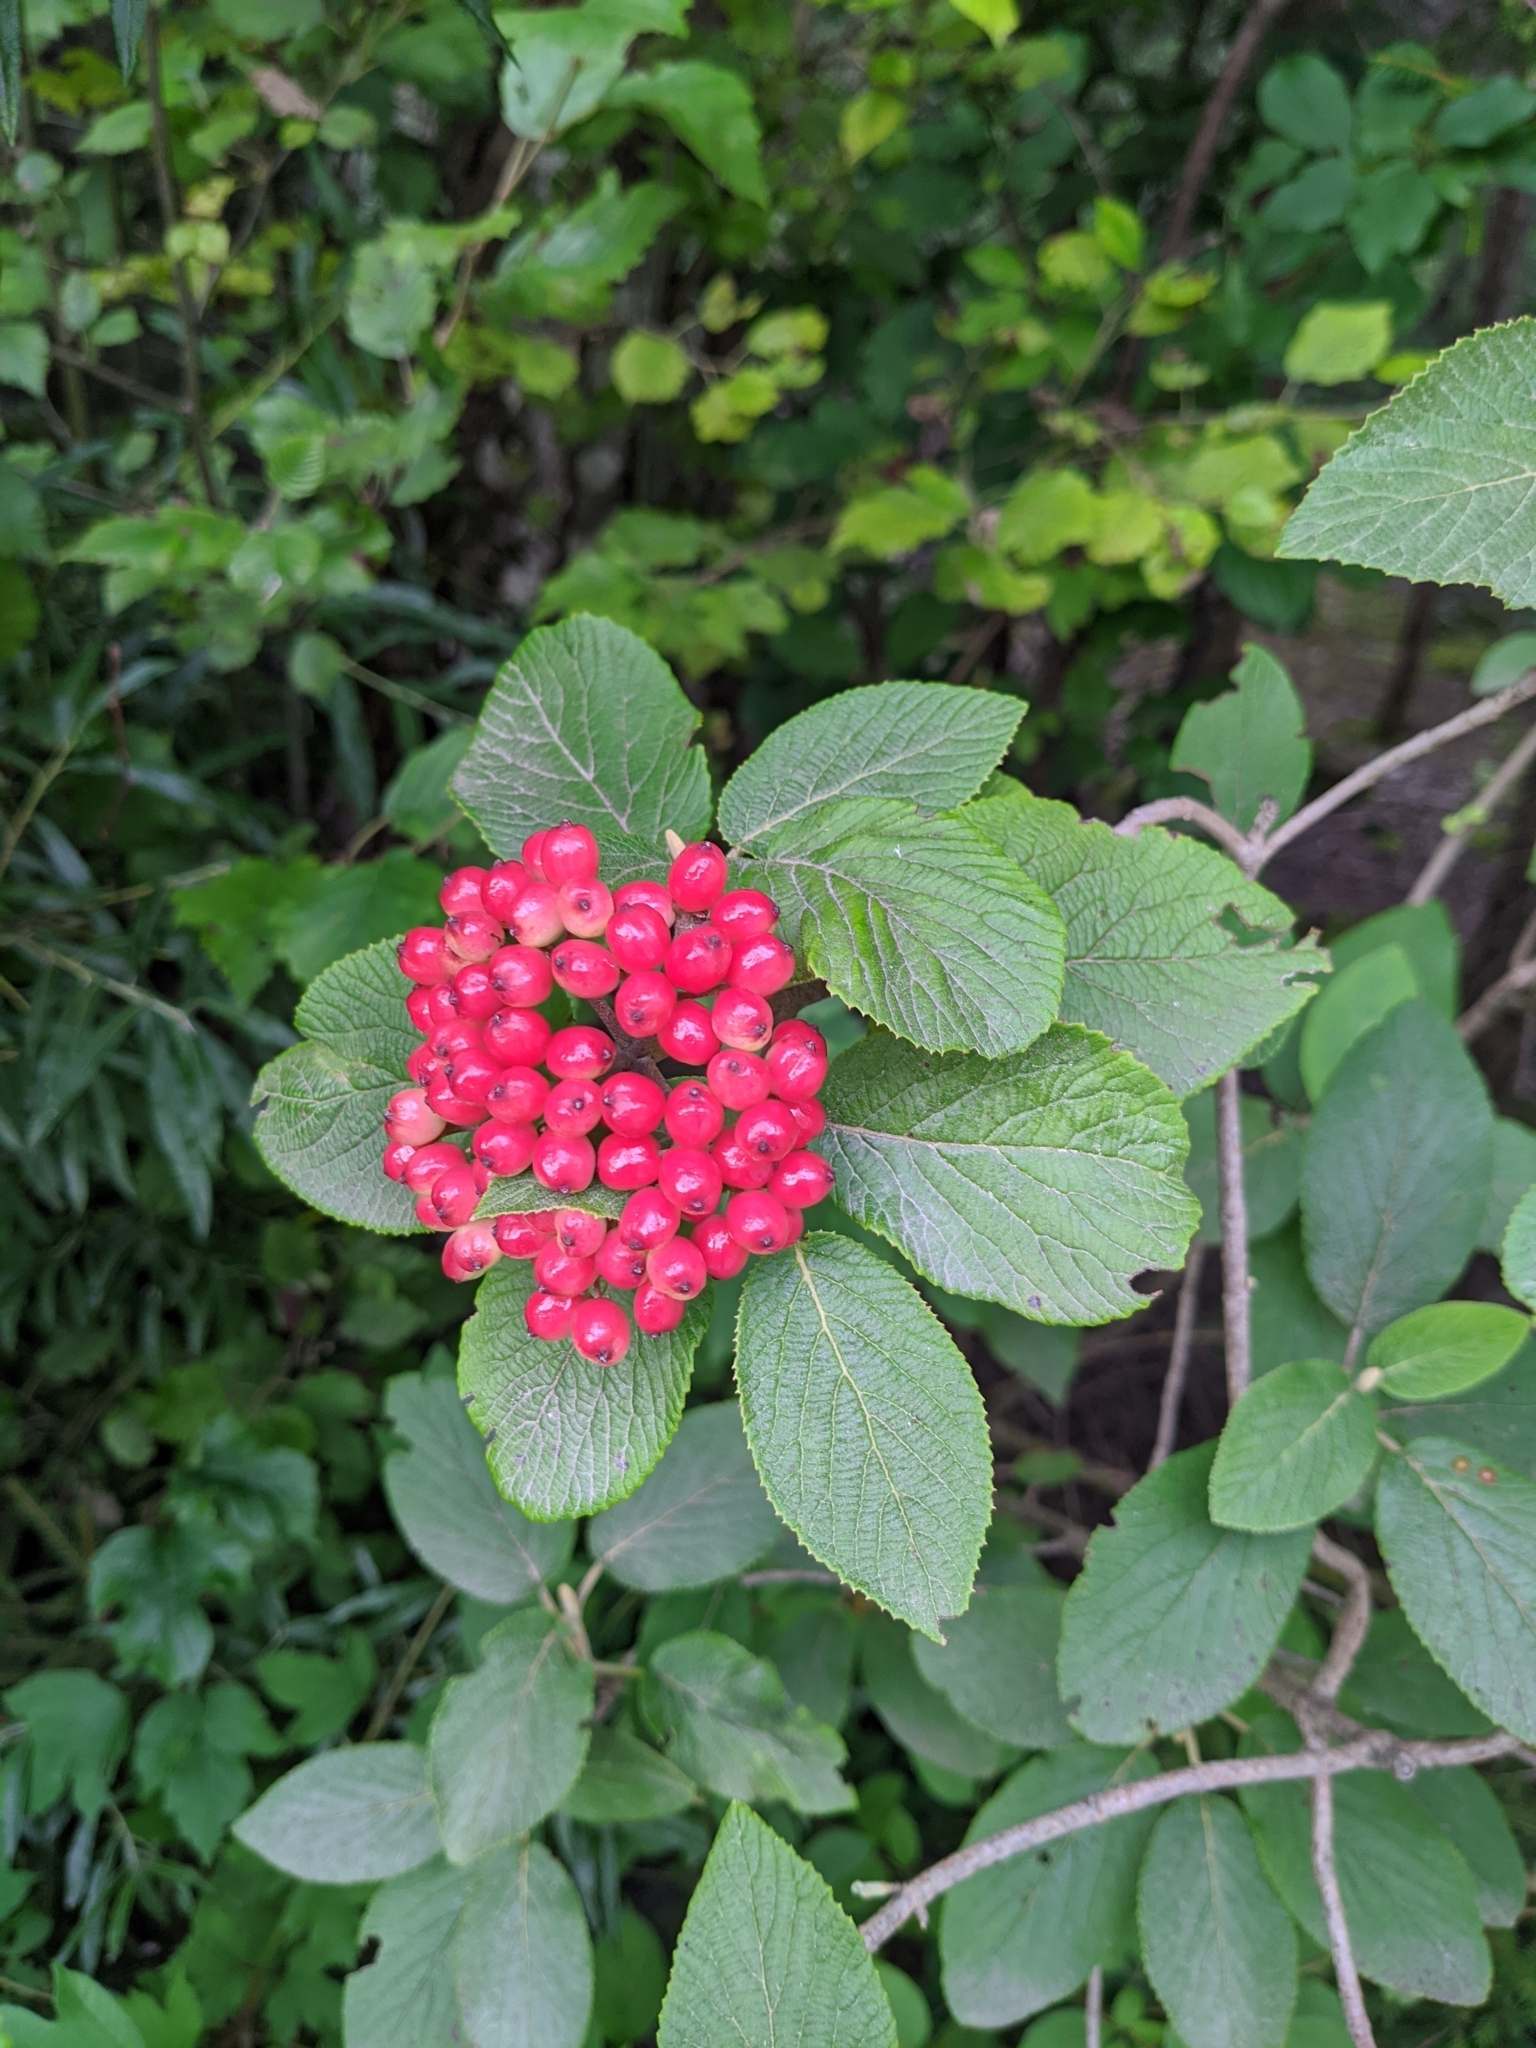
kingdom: Plantae
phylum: Tracheophyta
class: Magnoliopsida
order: Dipsacales
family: Viburnaceae
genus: Viburnum
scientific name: Viburnum lantana
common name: Wayfaring tree
